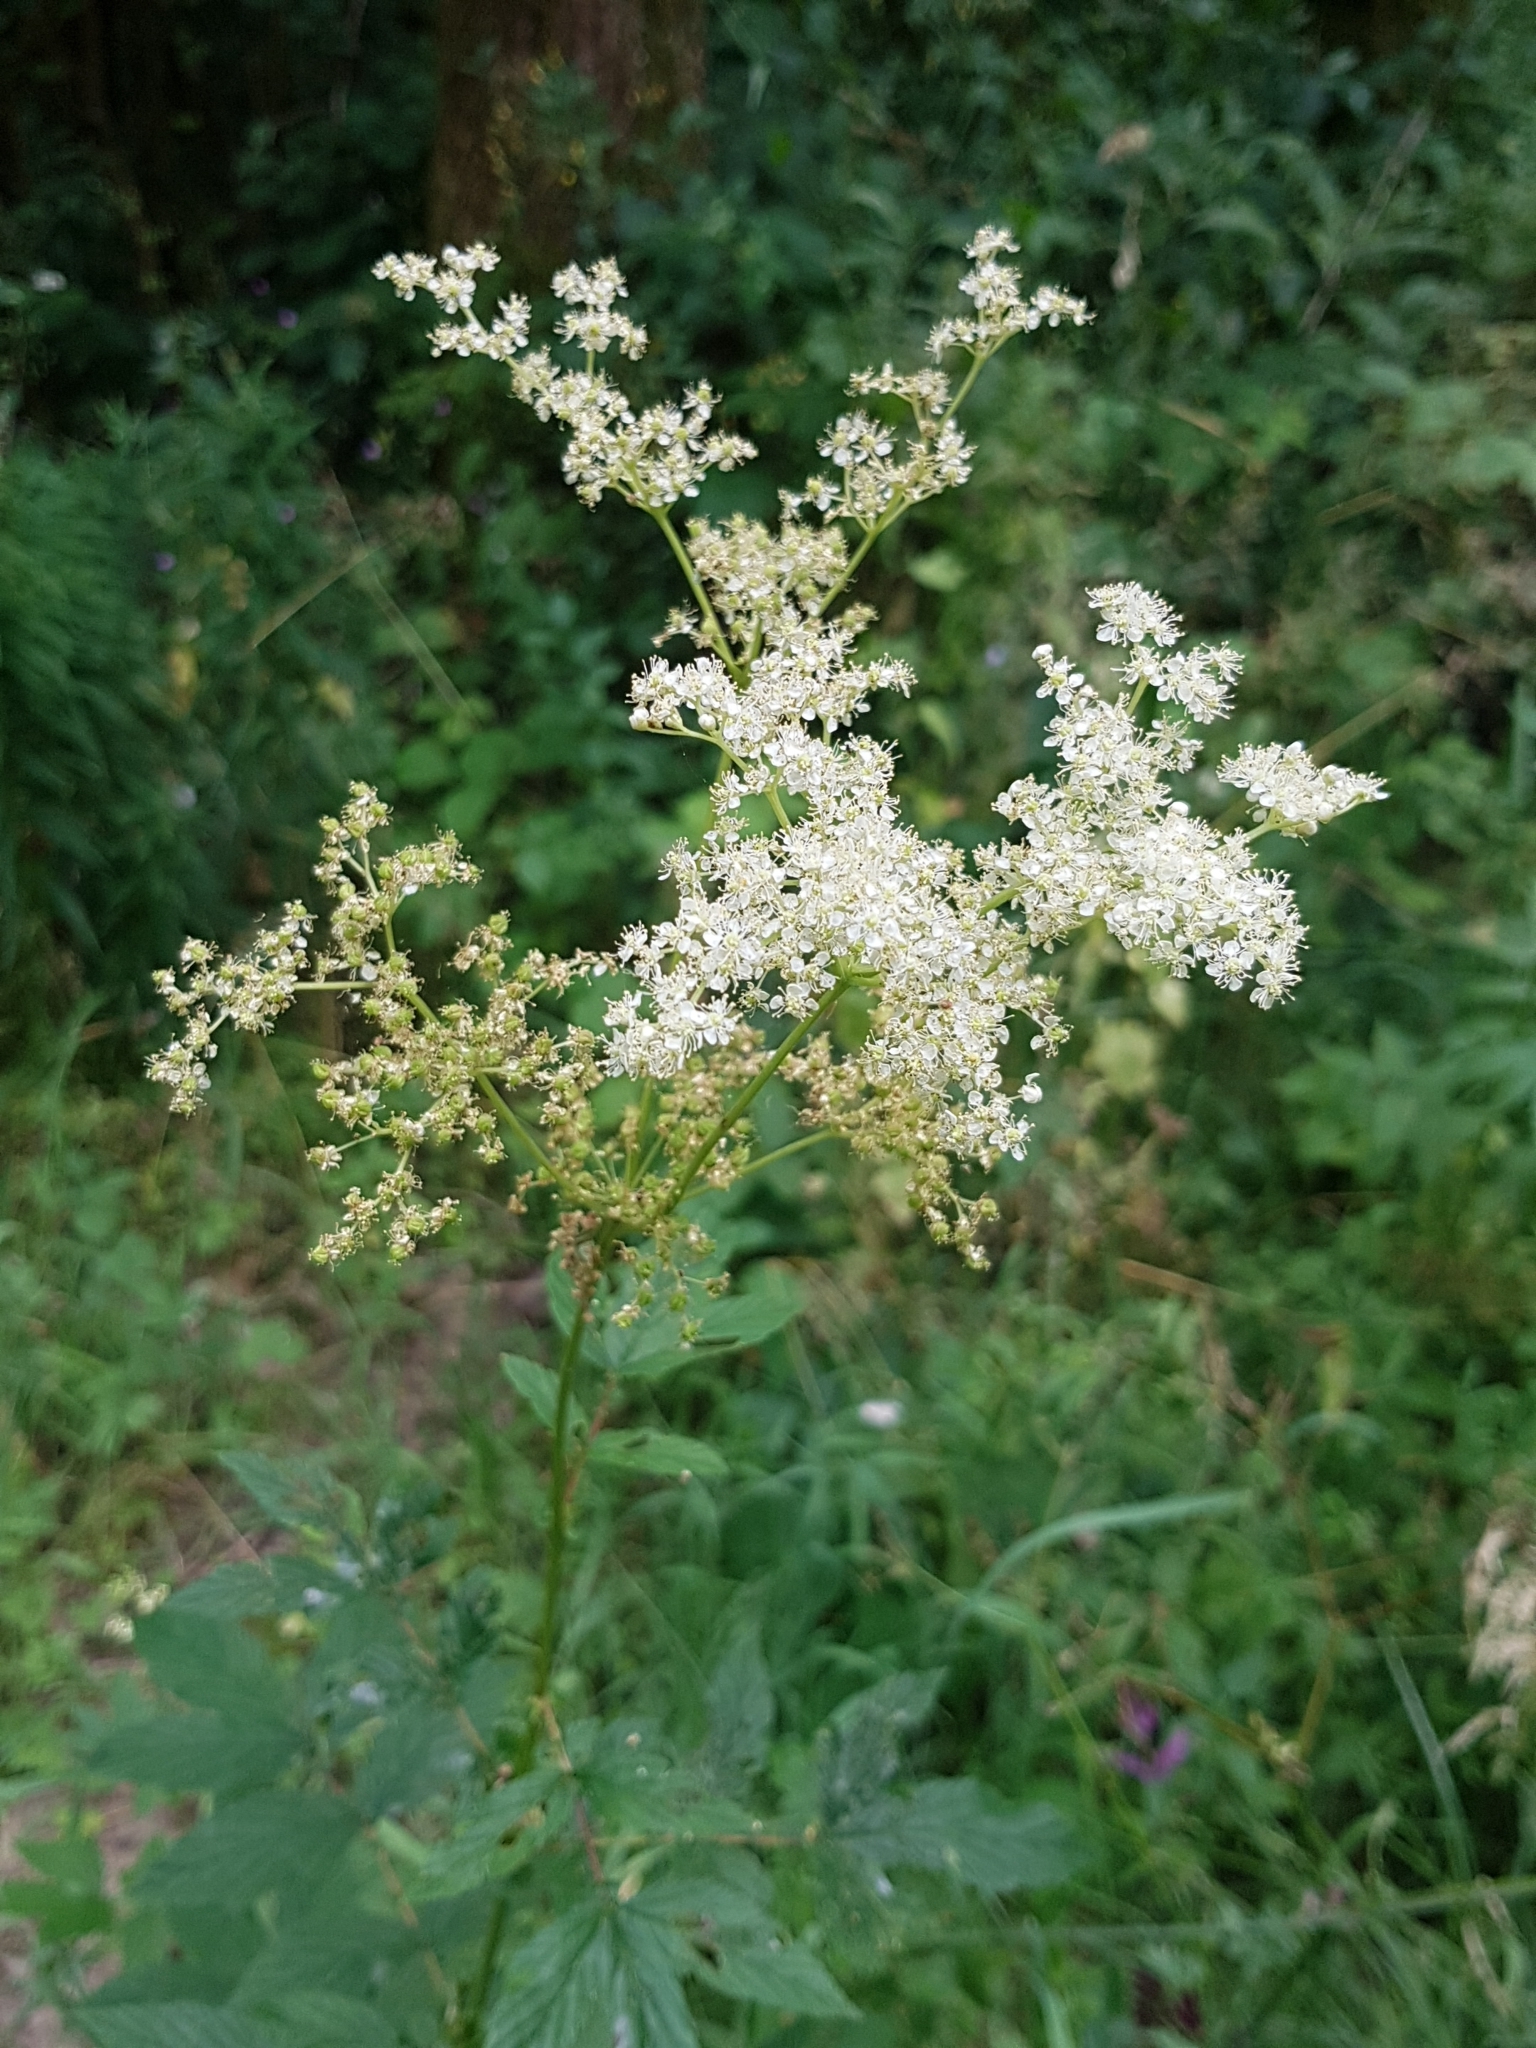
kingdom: Plantae
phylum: Tracheophyta
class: Magnoliopsida
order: Rosales
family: Rosaceae
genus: Filipendula
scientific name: Filipendula ulmaria
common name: Meadowsweet
